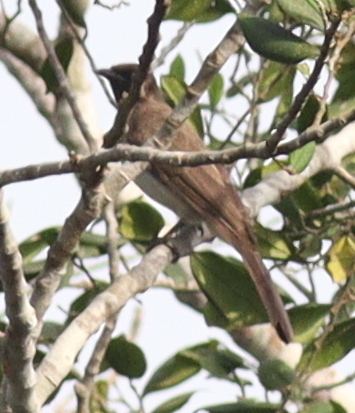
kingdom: Animalia
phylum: Chordata
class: Aves
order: Passeriformes
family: Pycnonotidae
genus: Pycnonotus
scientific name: Pycnonotus barbatus
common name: Common bulbul
